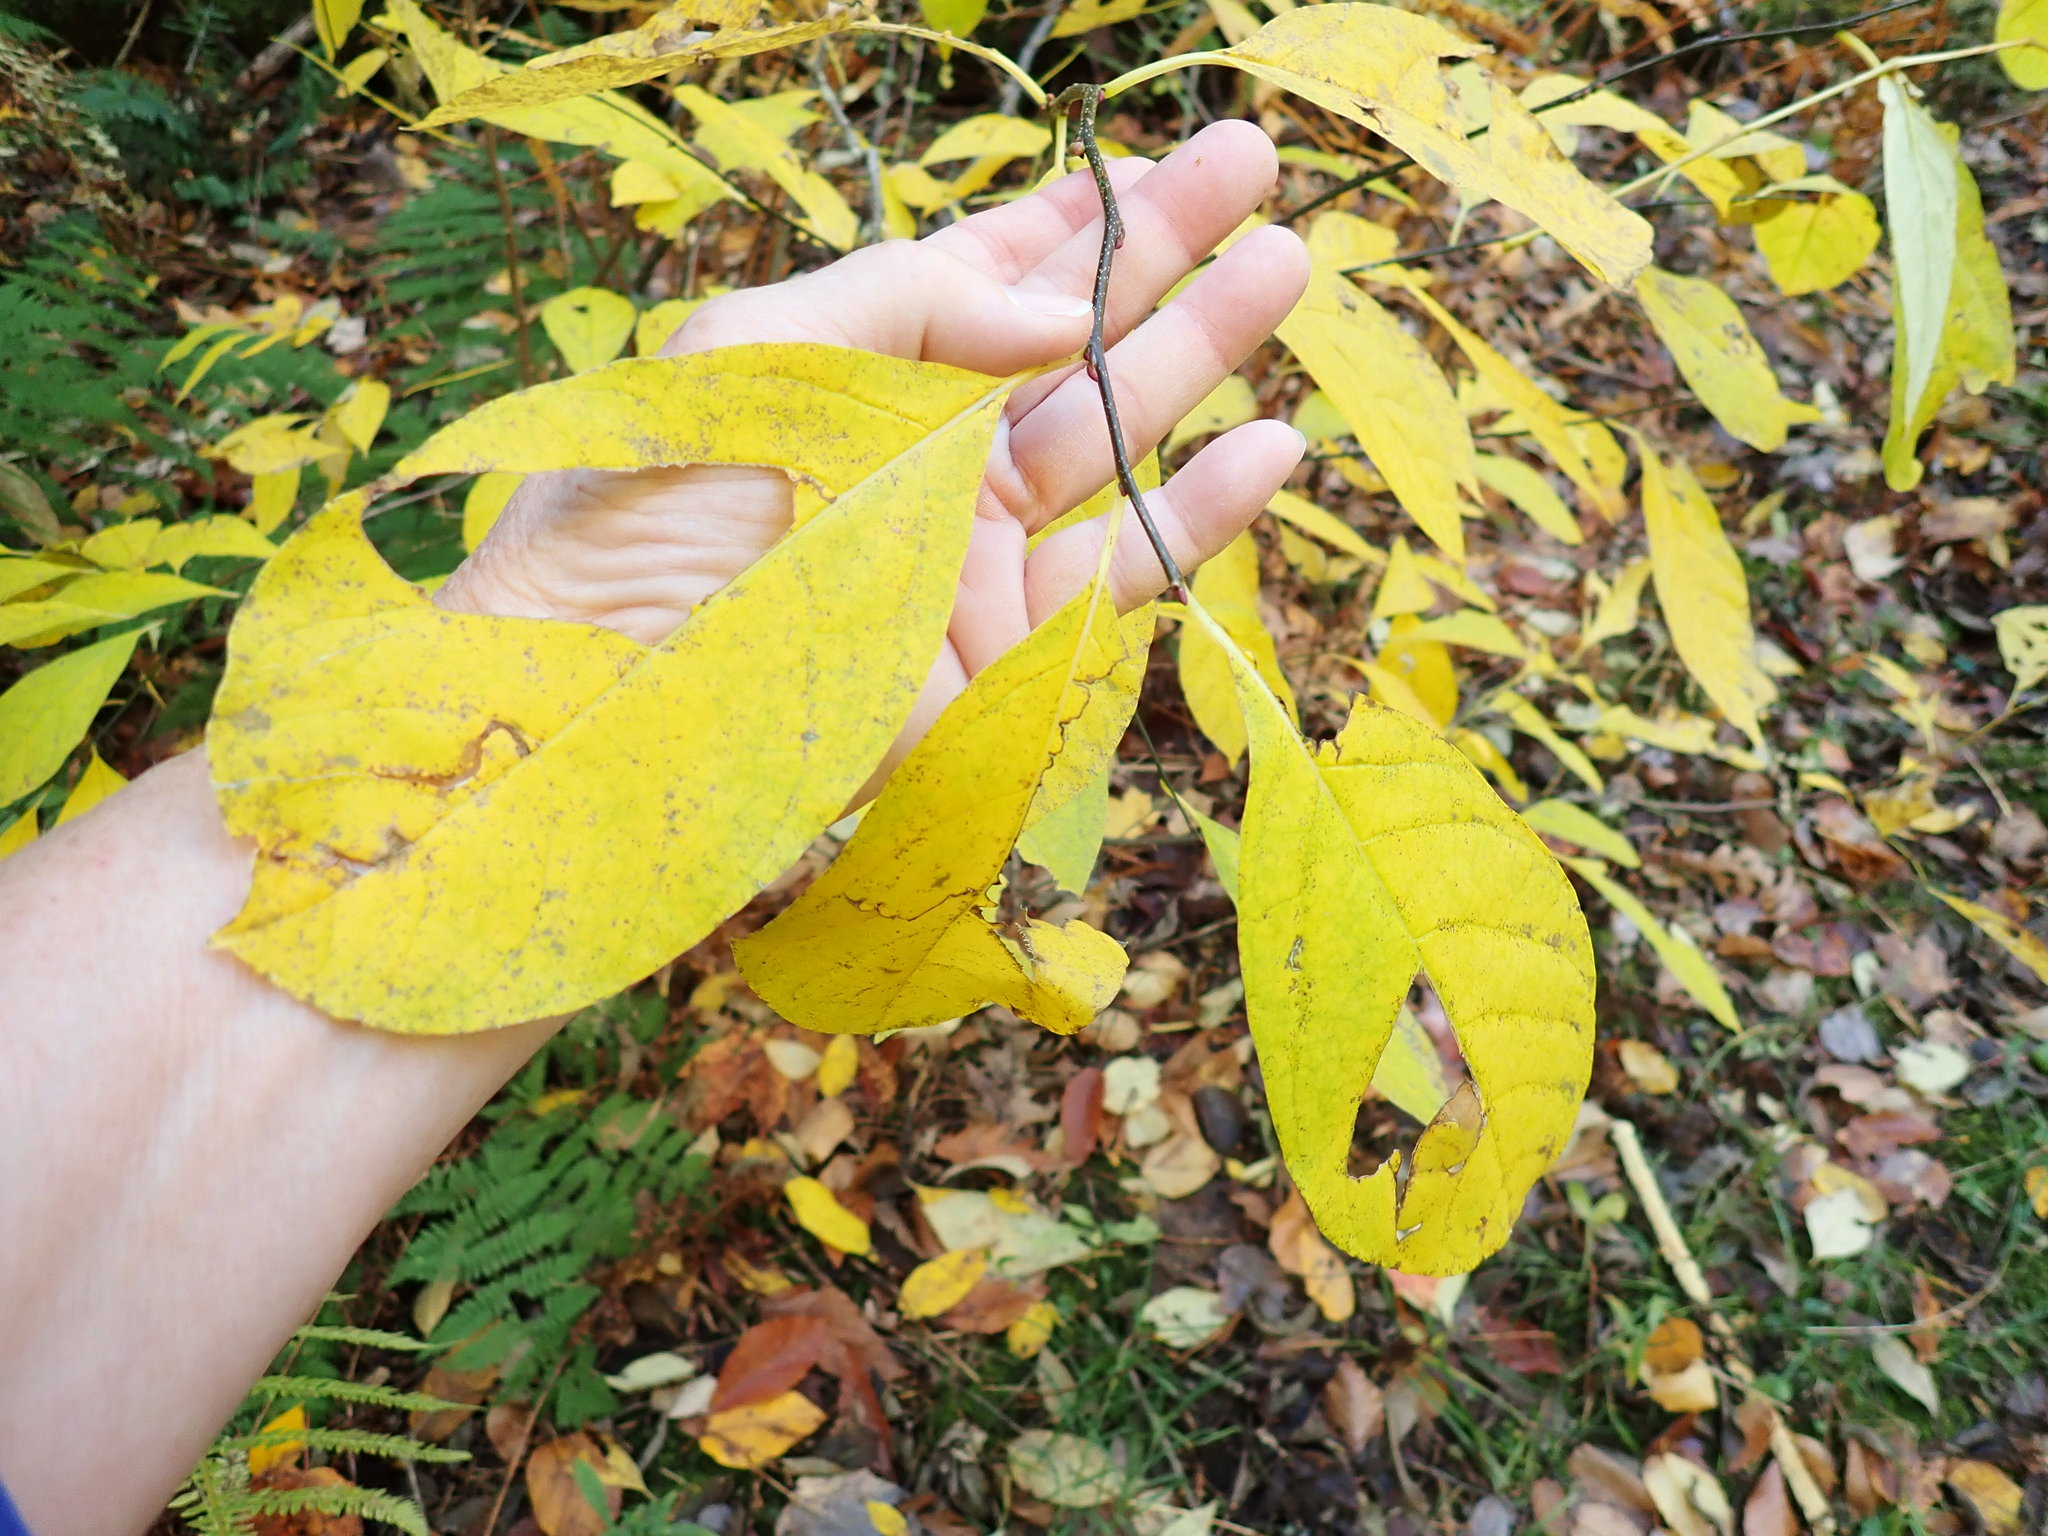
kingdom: Plantae
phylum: Tracheophyta
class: Magnoliopsida
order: Laurales
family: Lauraceae
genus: Lindera
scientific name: Lindera benzoin
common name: Spicebush
